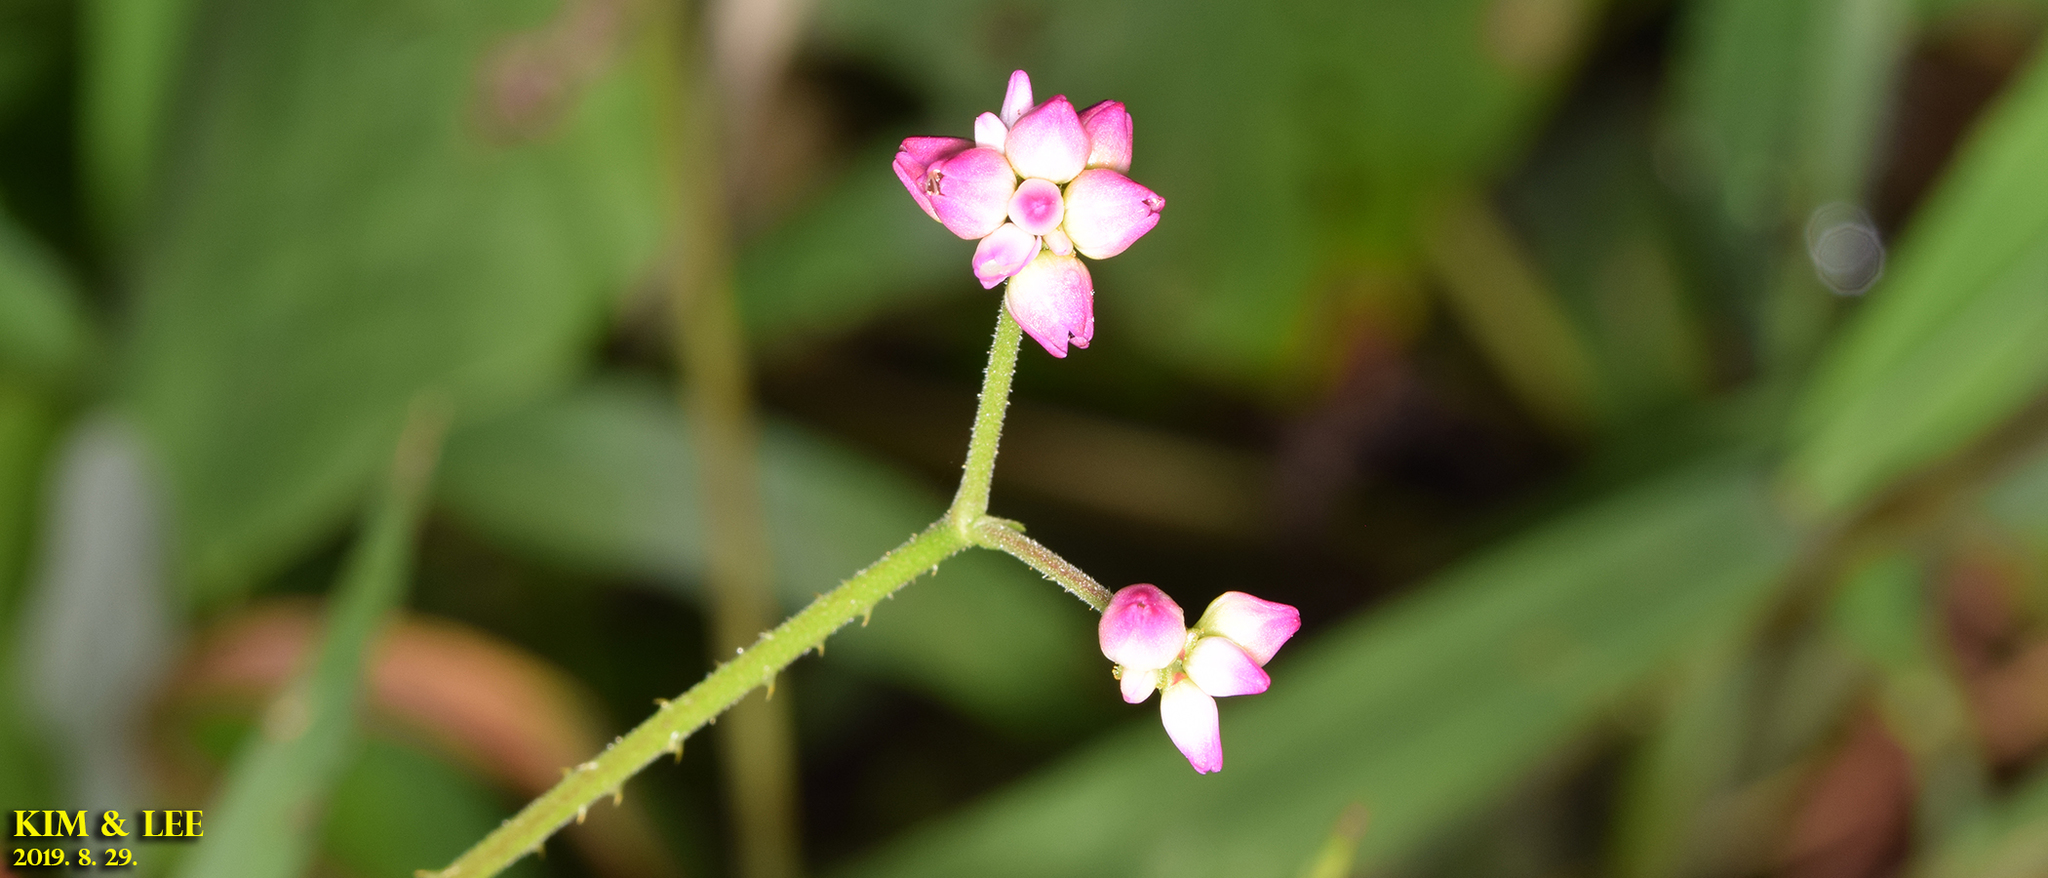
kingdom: Plantae
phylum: Tracheophyta
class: Magnoliopsida
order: Caryophyllales
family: Polygonaceae
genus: Persicaria
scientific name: Persicaria senticosa
